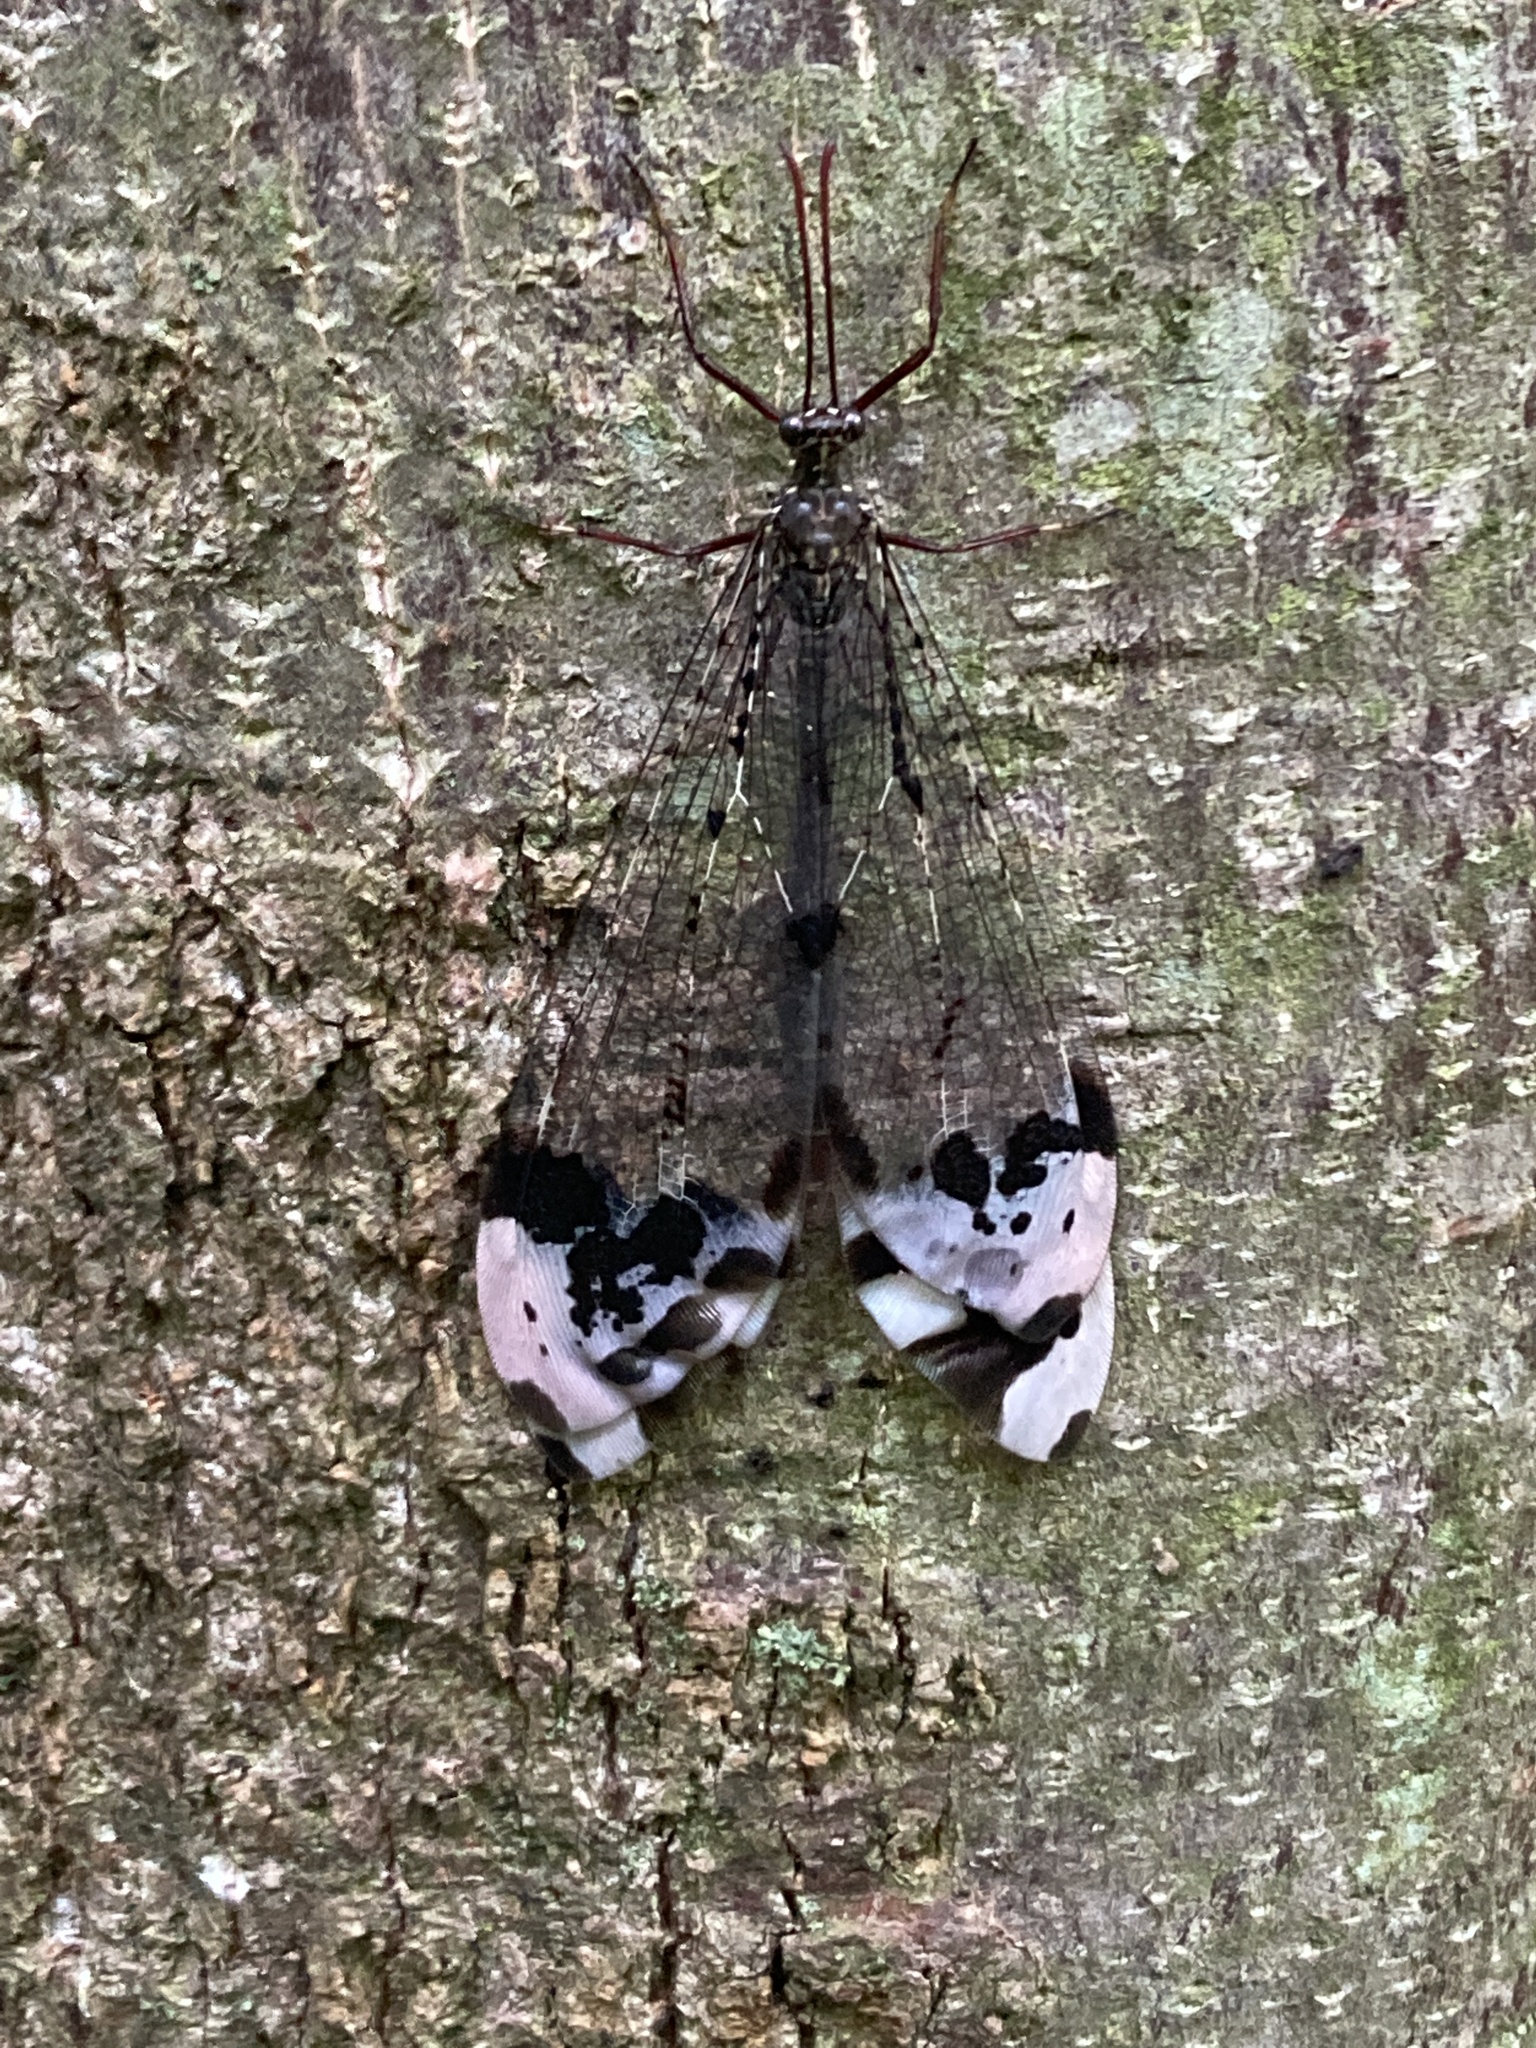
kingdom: Animalia
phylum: Arthropoda
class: Insecta
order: Neuroptera
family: Myrmeleontidae
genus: Glenurus
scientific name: Glenurus gratus
